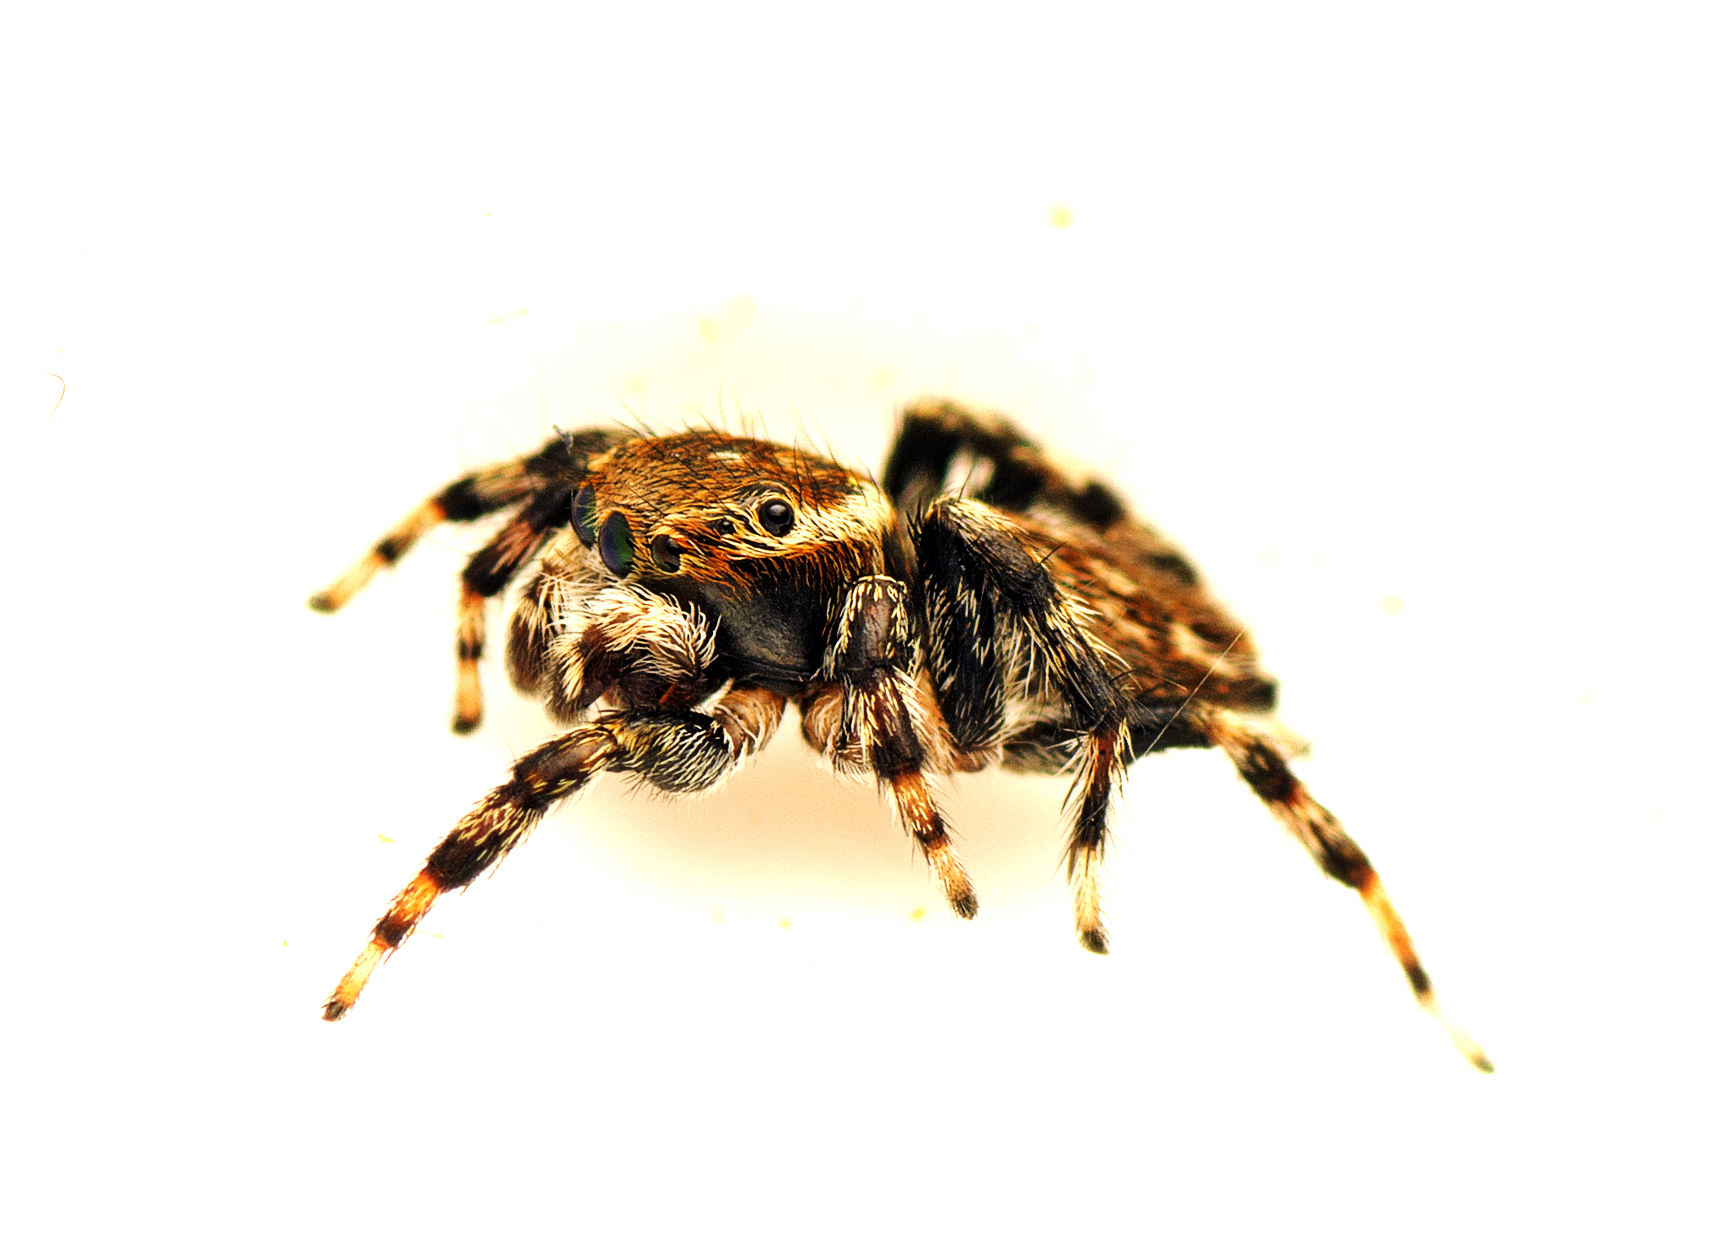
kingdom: Animalia
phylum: Arthropoda
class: Arachnida
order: Araneae
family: Salticidae
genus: Maratus
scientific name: Maratus griseus
